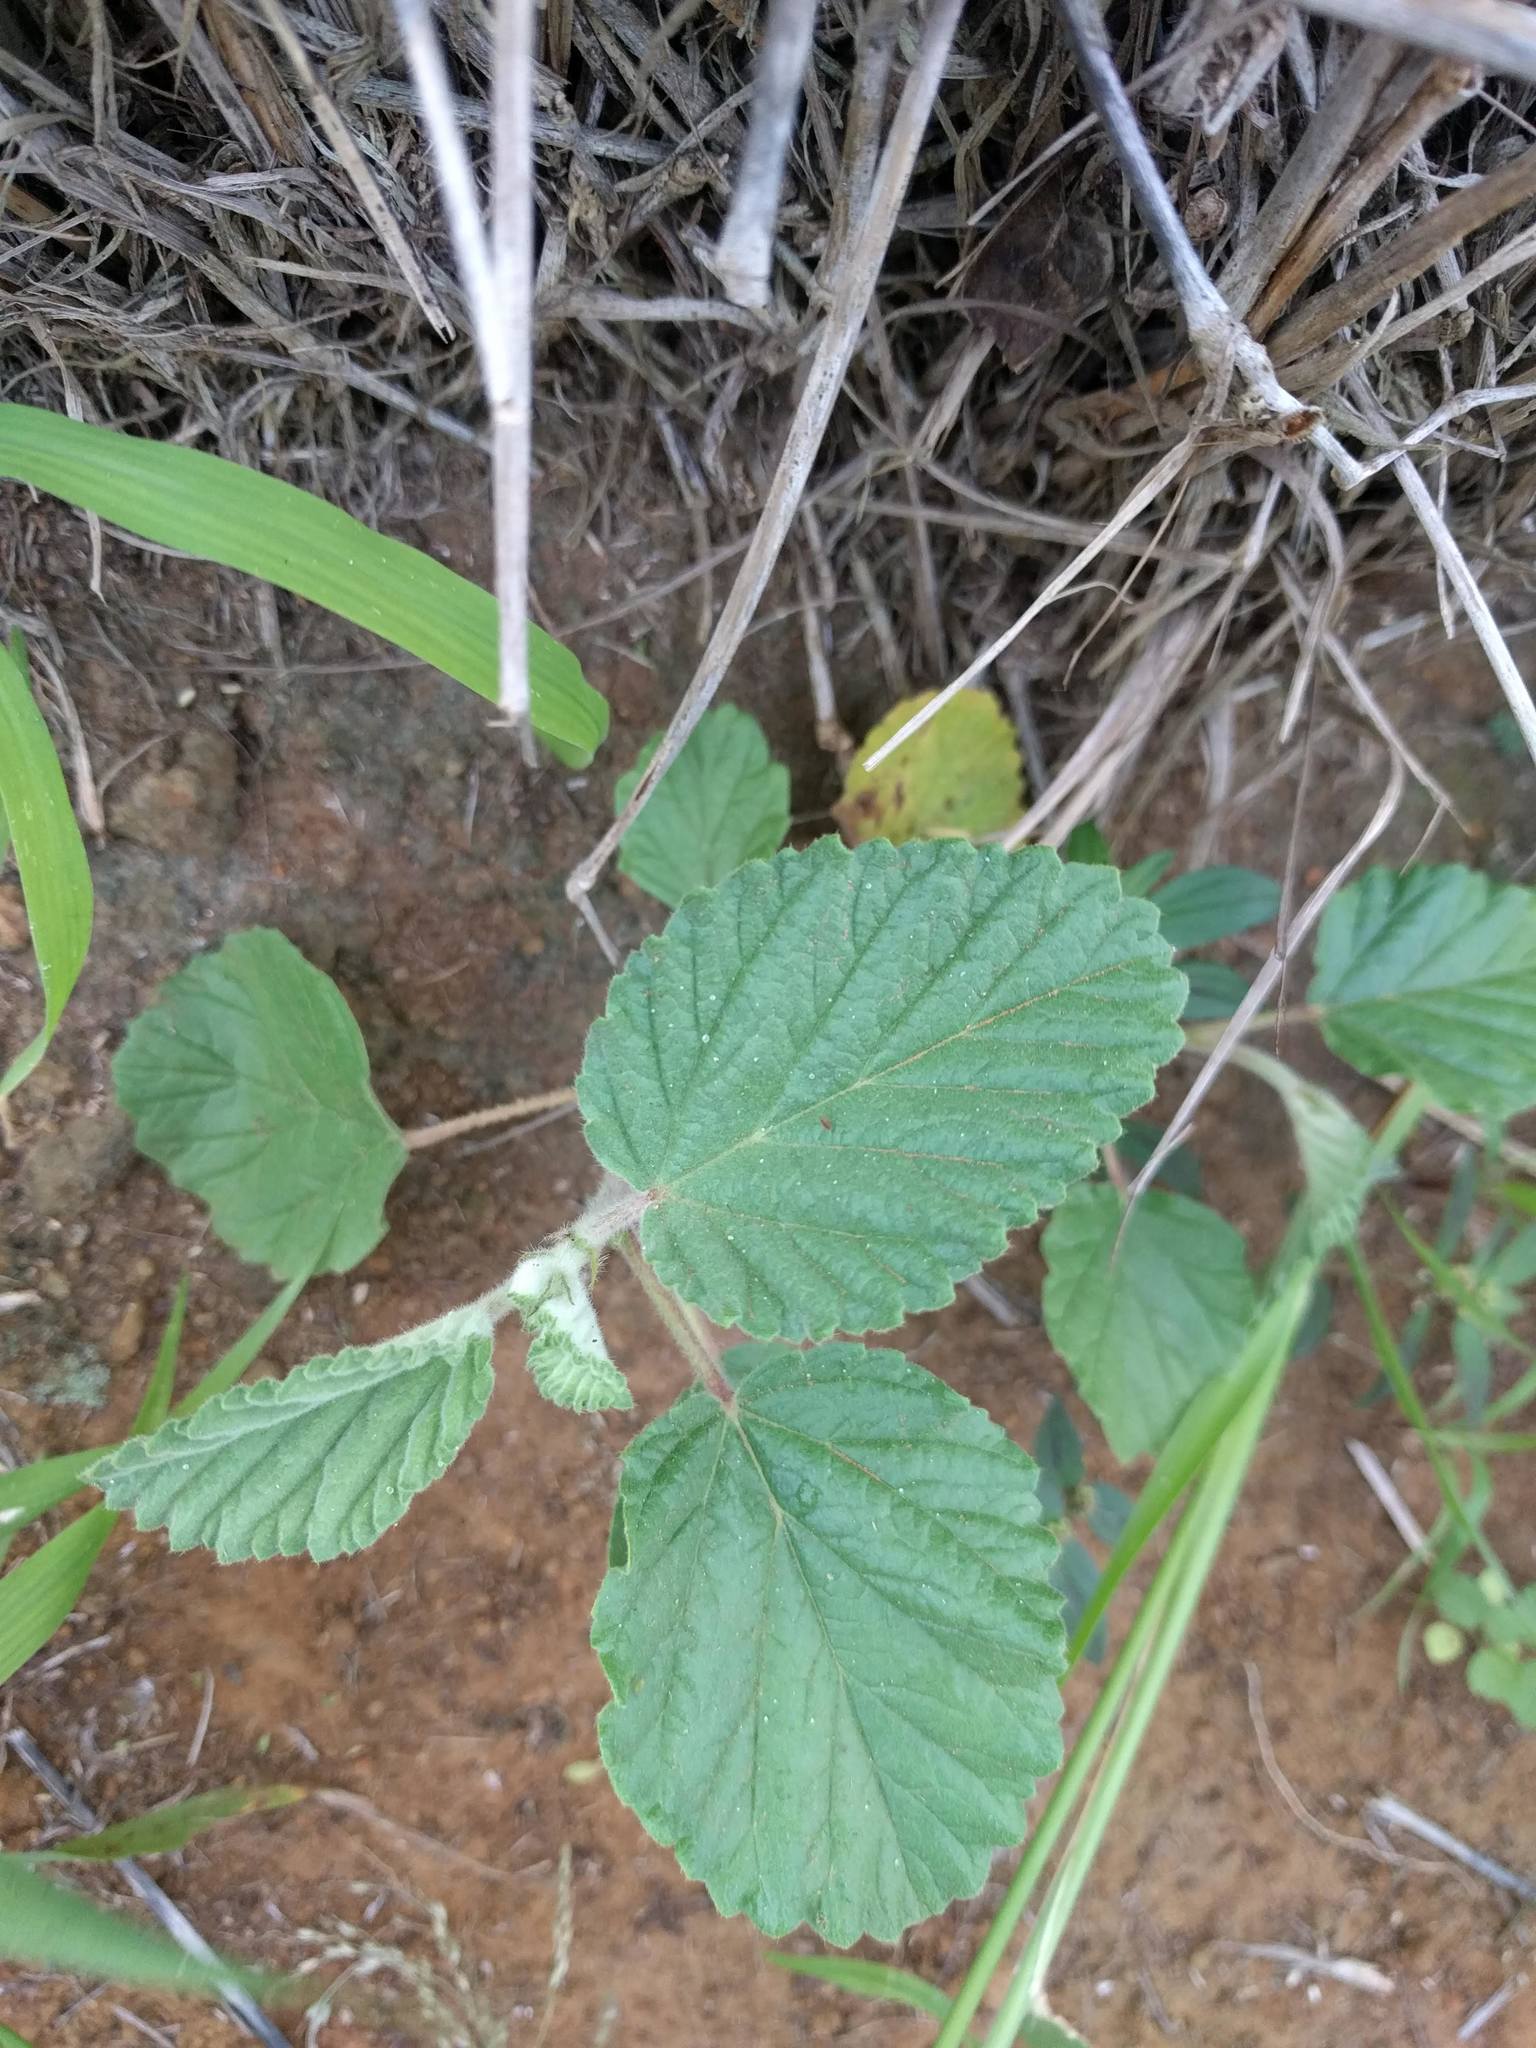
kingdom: Plantae
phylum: Tracheophyta
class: Magnoliopsida
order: Malvales
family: Malvaceae
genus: Waltheria
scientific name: Waltheria indica
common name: Leather-coat
